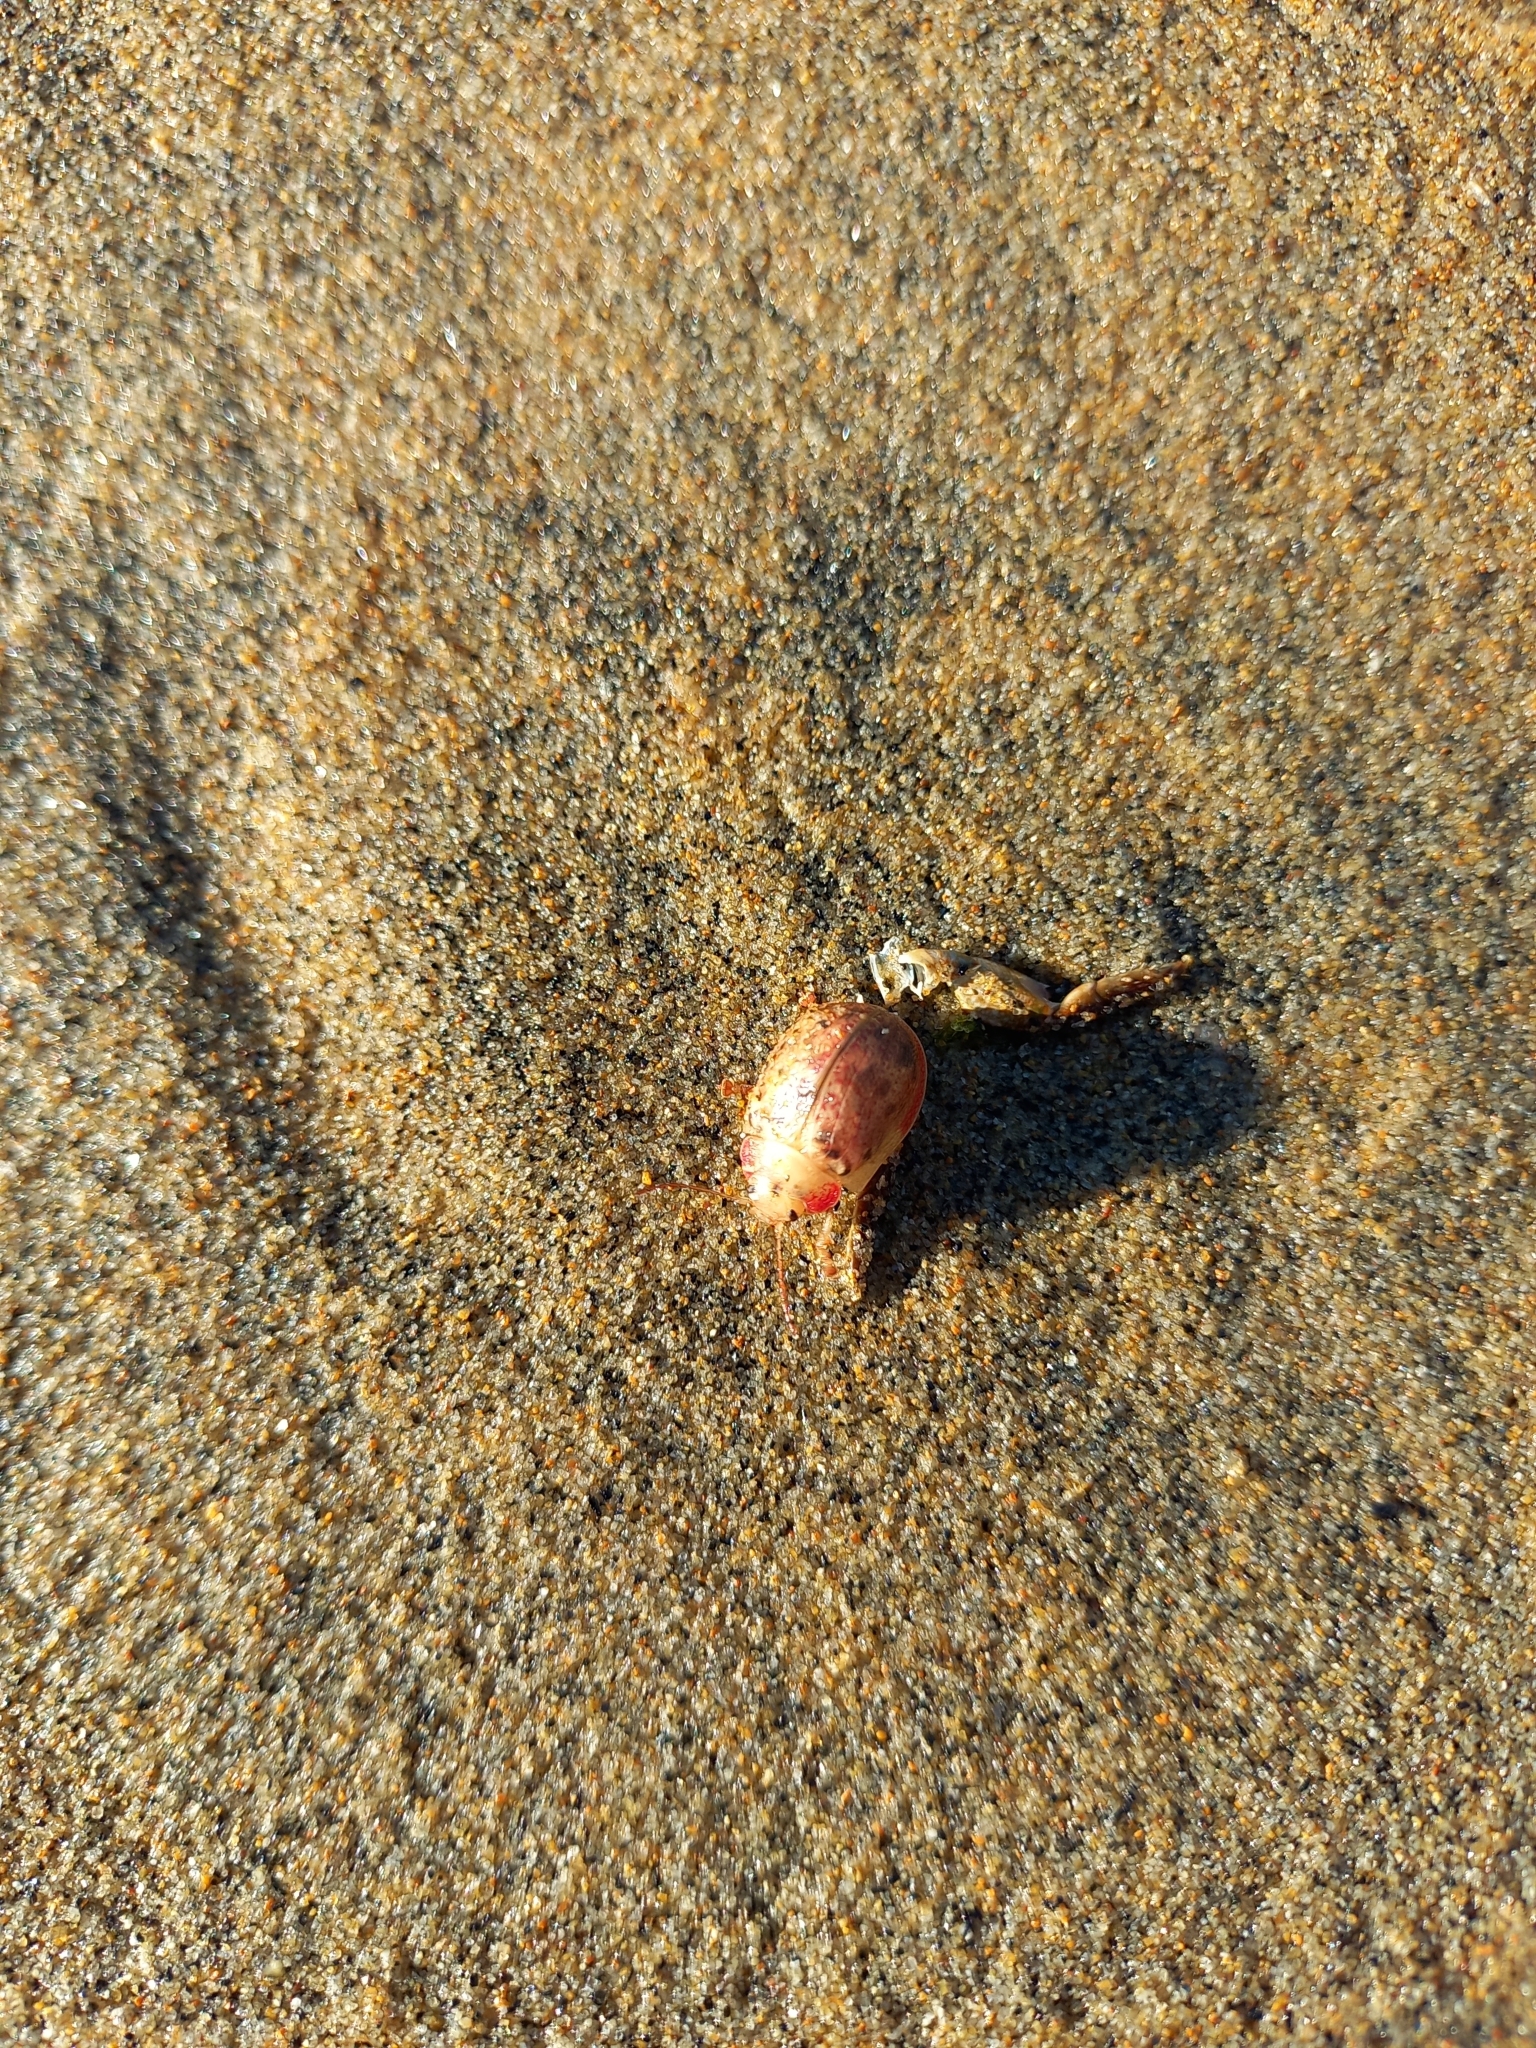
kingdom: Animalia
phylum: Arthropoda
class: Insecta
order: Coleoptera
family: Chrysomelidae
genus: Paropsis
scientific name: Paropsis charybdis
